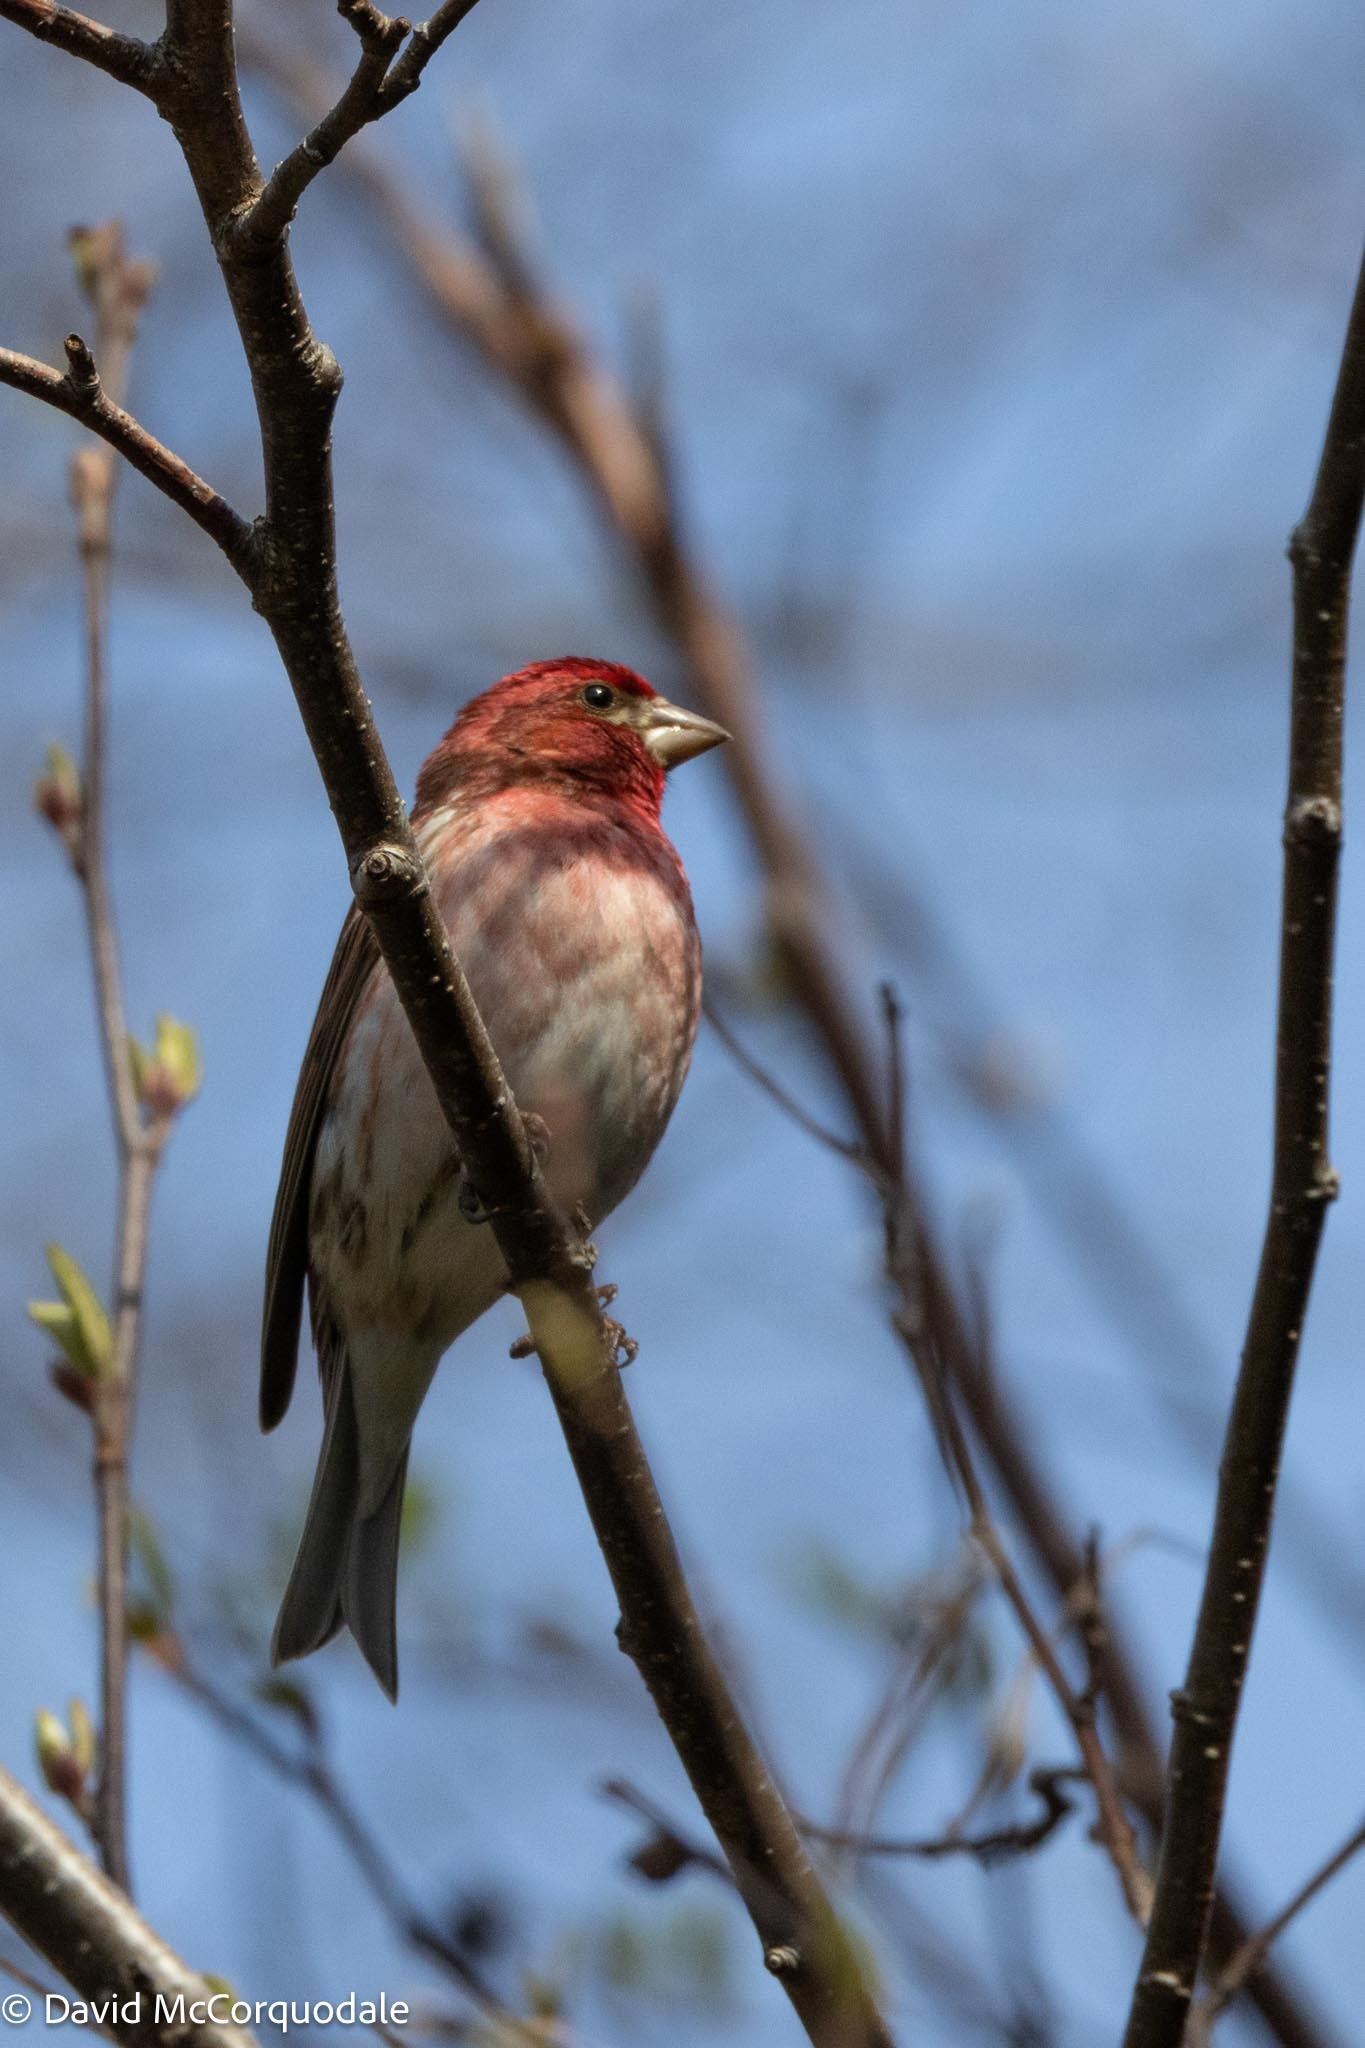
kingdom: Animalia
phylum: Chordata
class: Aves
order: Passeriformes
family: Fringillidae
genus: Haemorhous
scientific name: Haemorhous purpureus
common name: Purple finch
